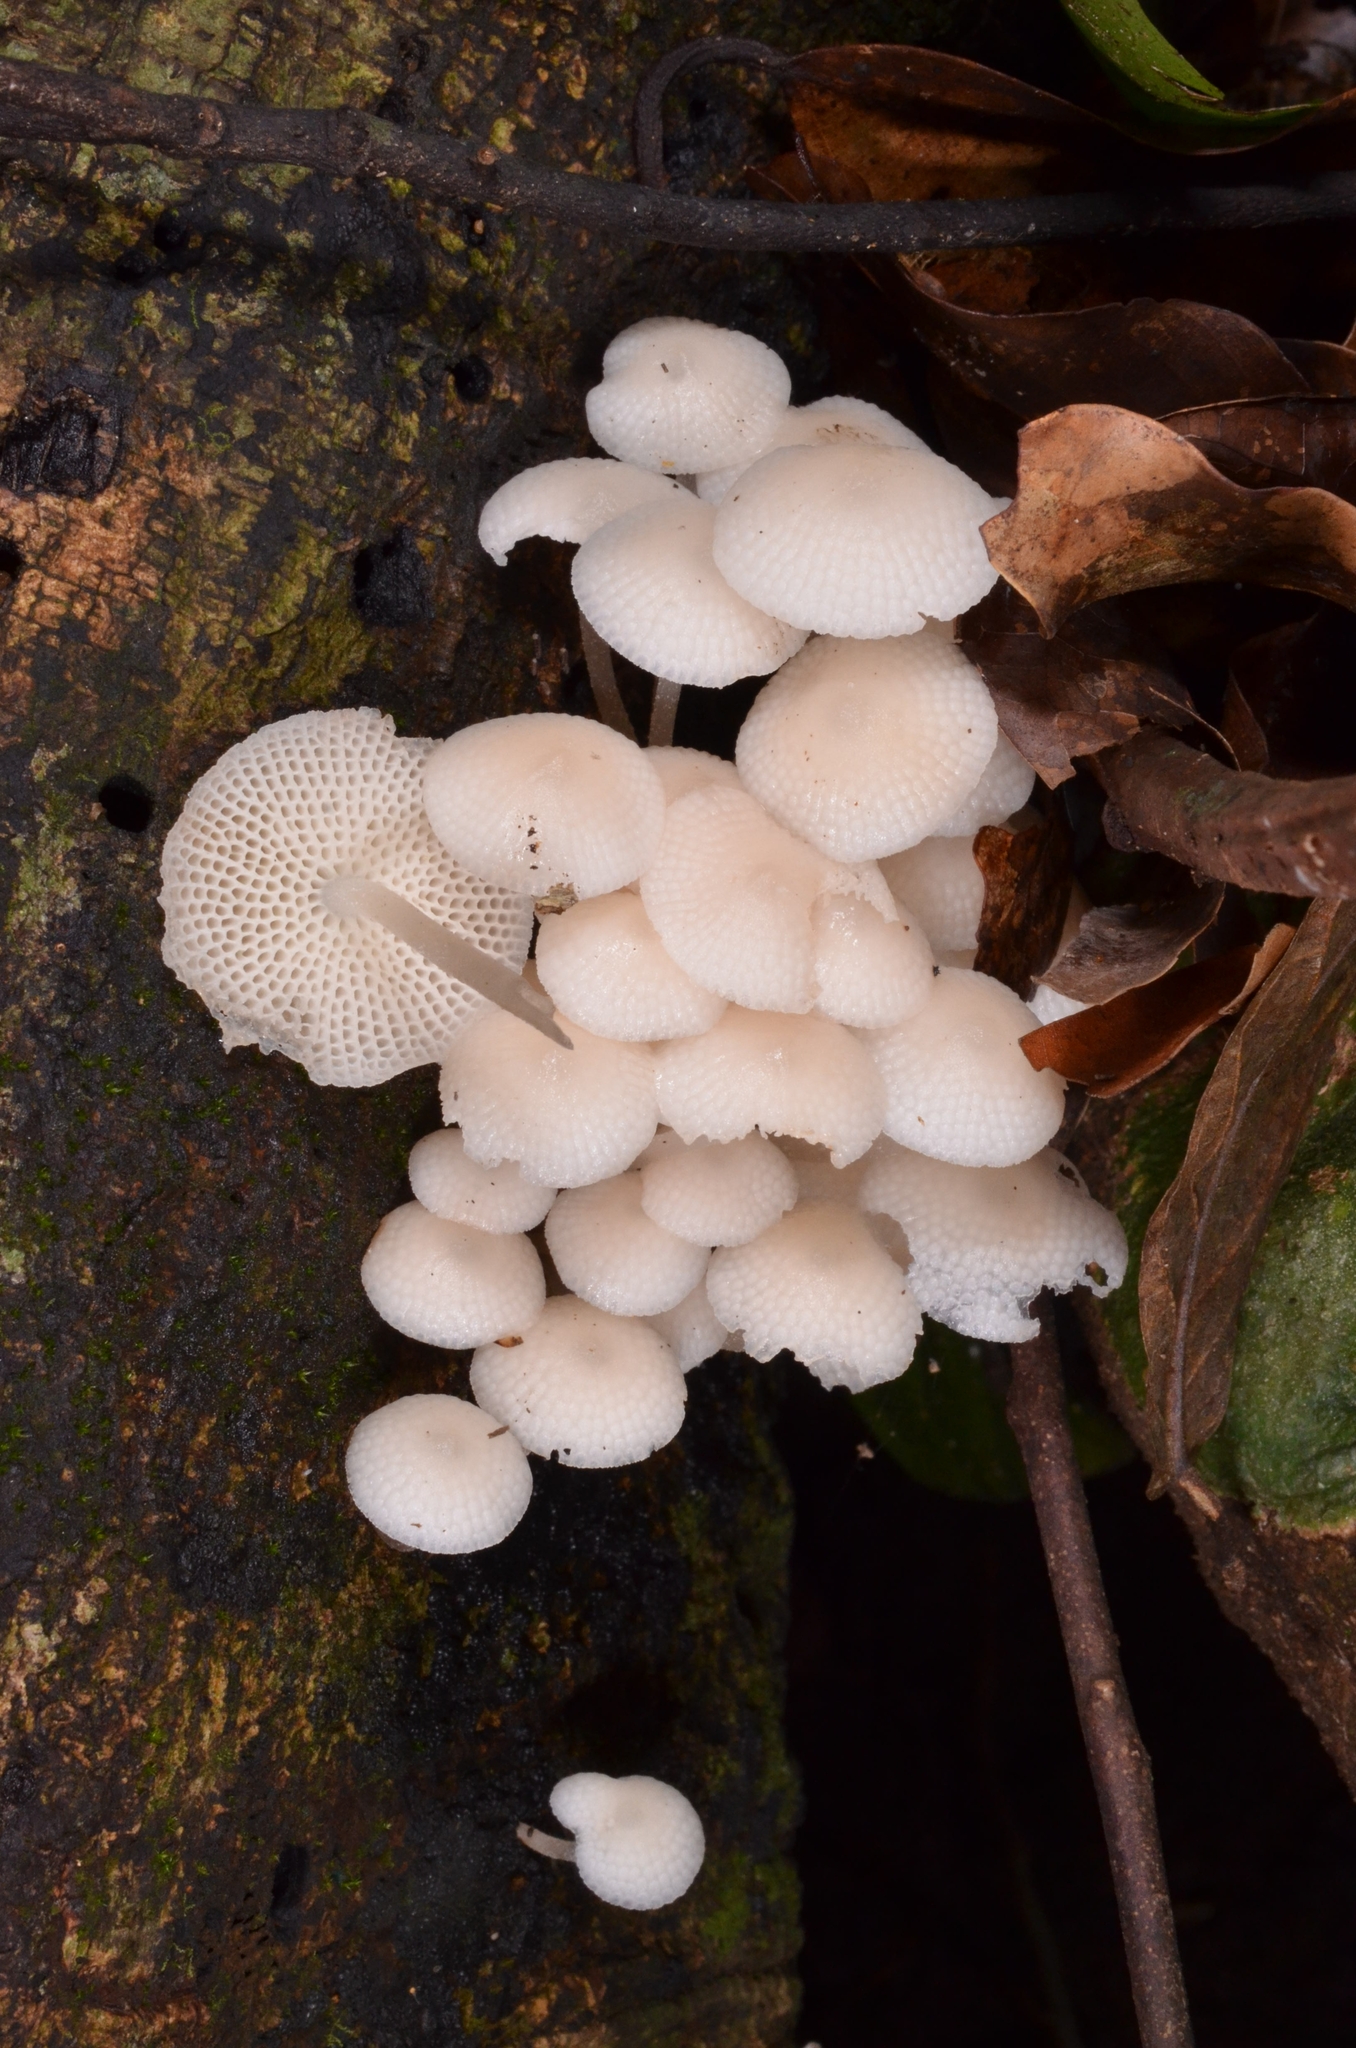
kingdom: Fungi
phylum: Basidiomycota
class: Agaricomycetes
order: Agaricales
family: Mycenaceae
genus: Filoboletus
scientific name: Filoboletus manipularis
